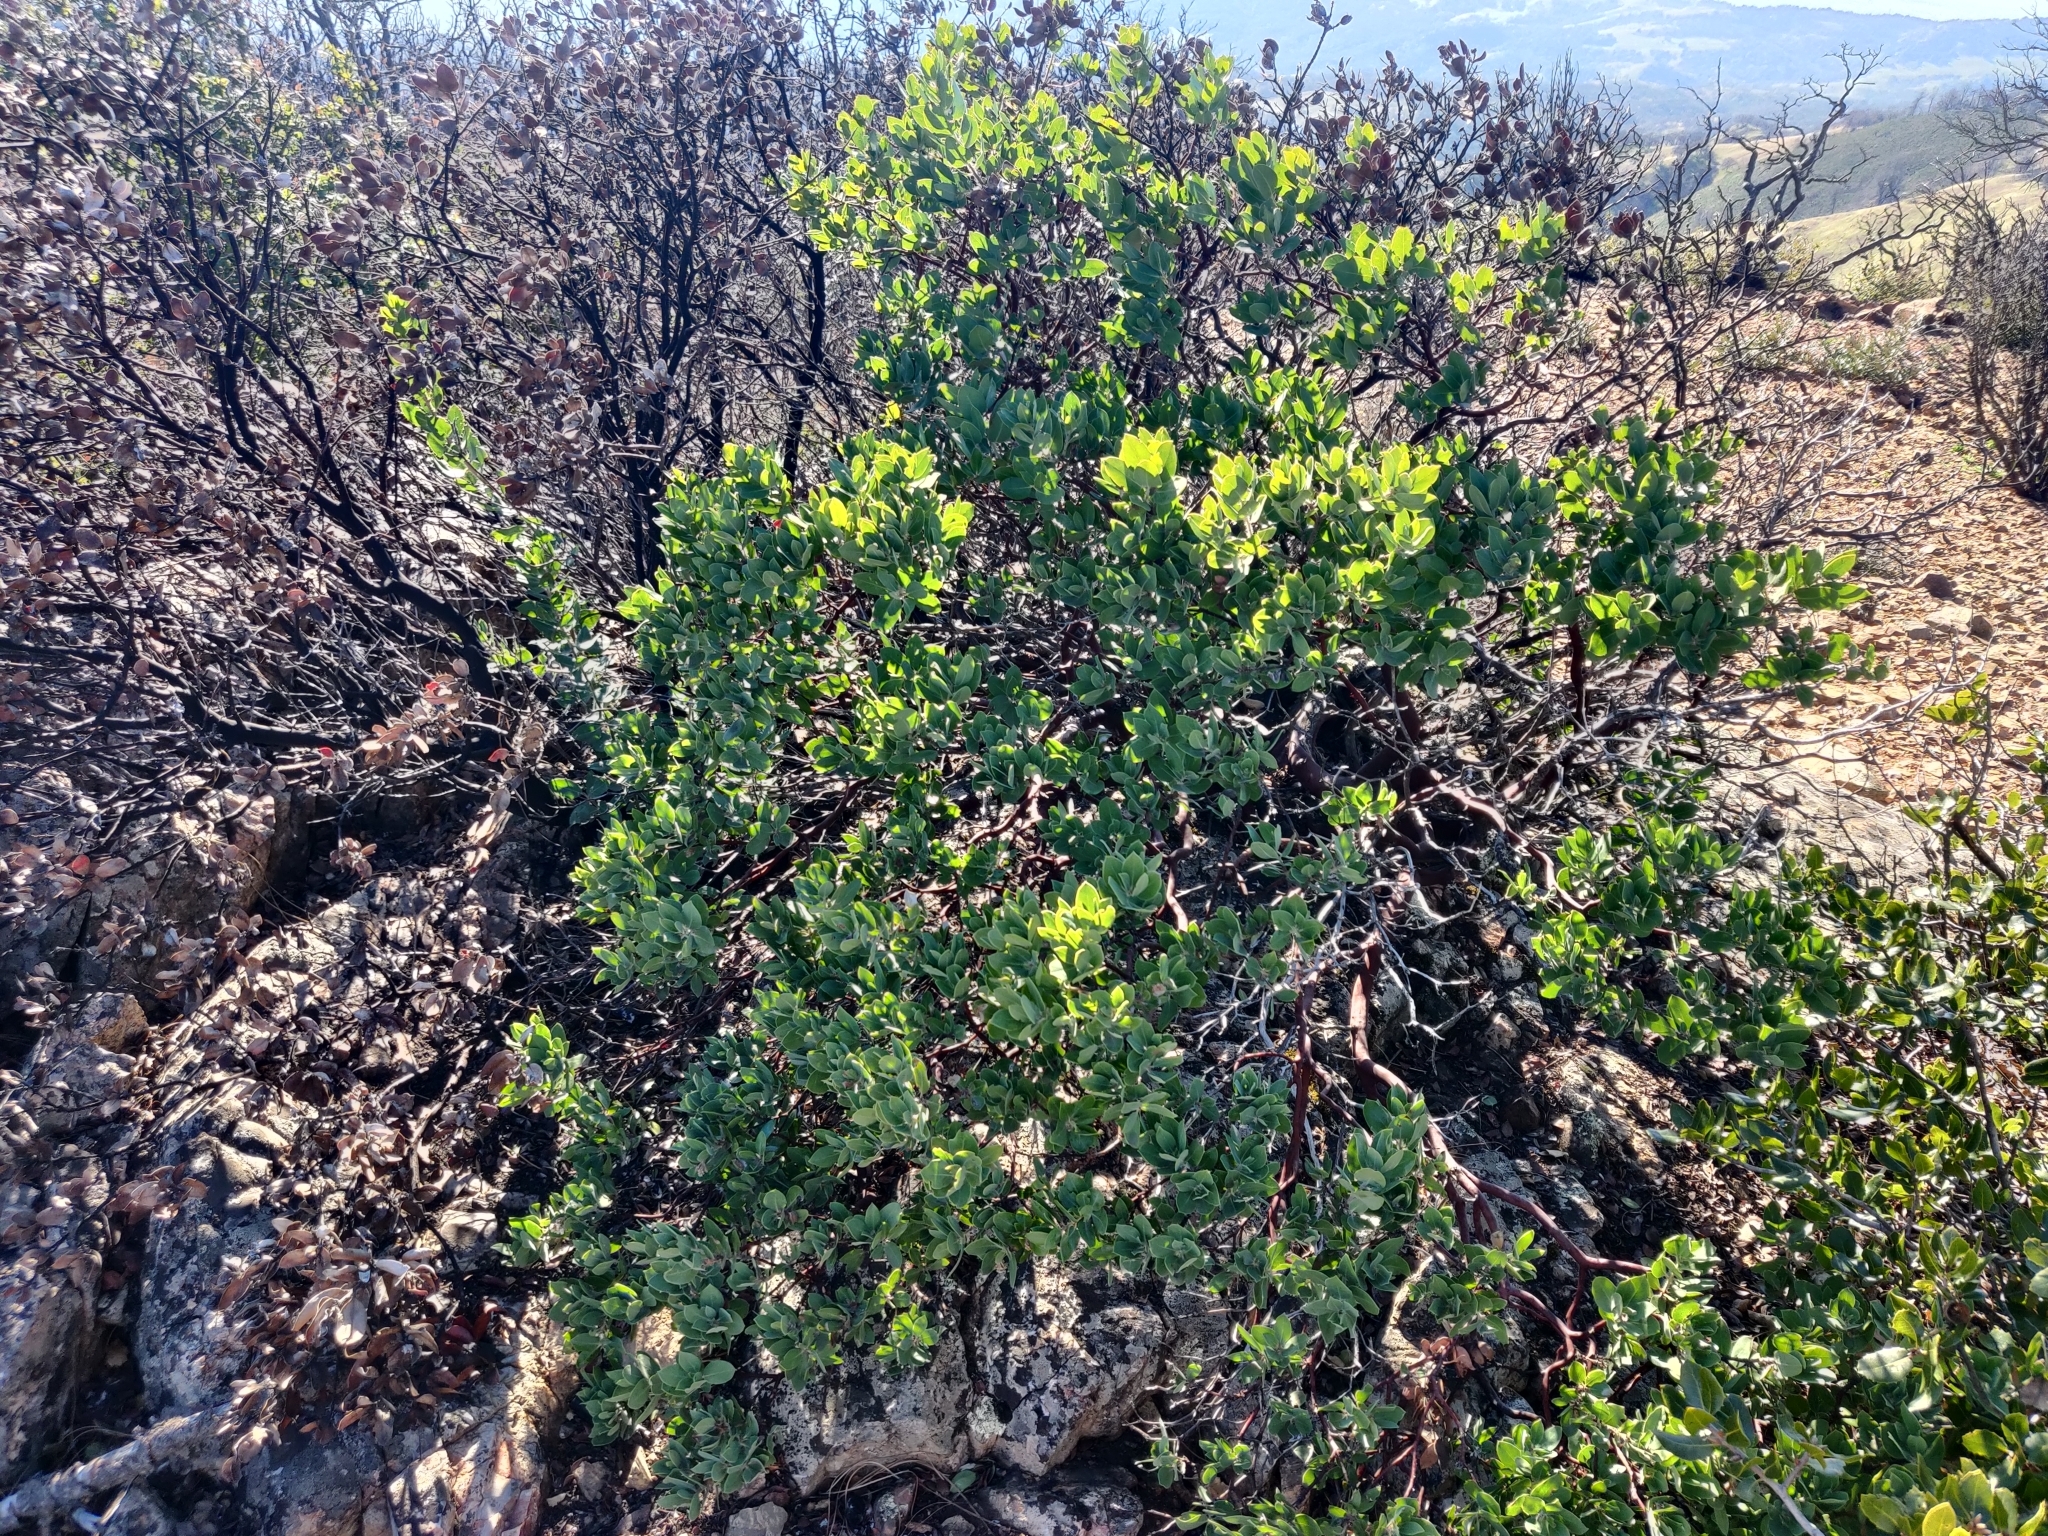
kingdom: Plantae
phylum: Tracheophyta
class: Magnoliopsida
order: Ericales
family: Ericaceae
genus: Arctostaphylos
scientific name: Arctostaphylos crustacea
